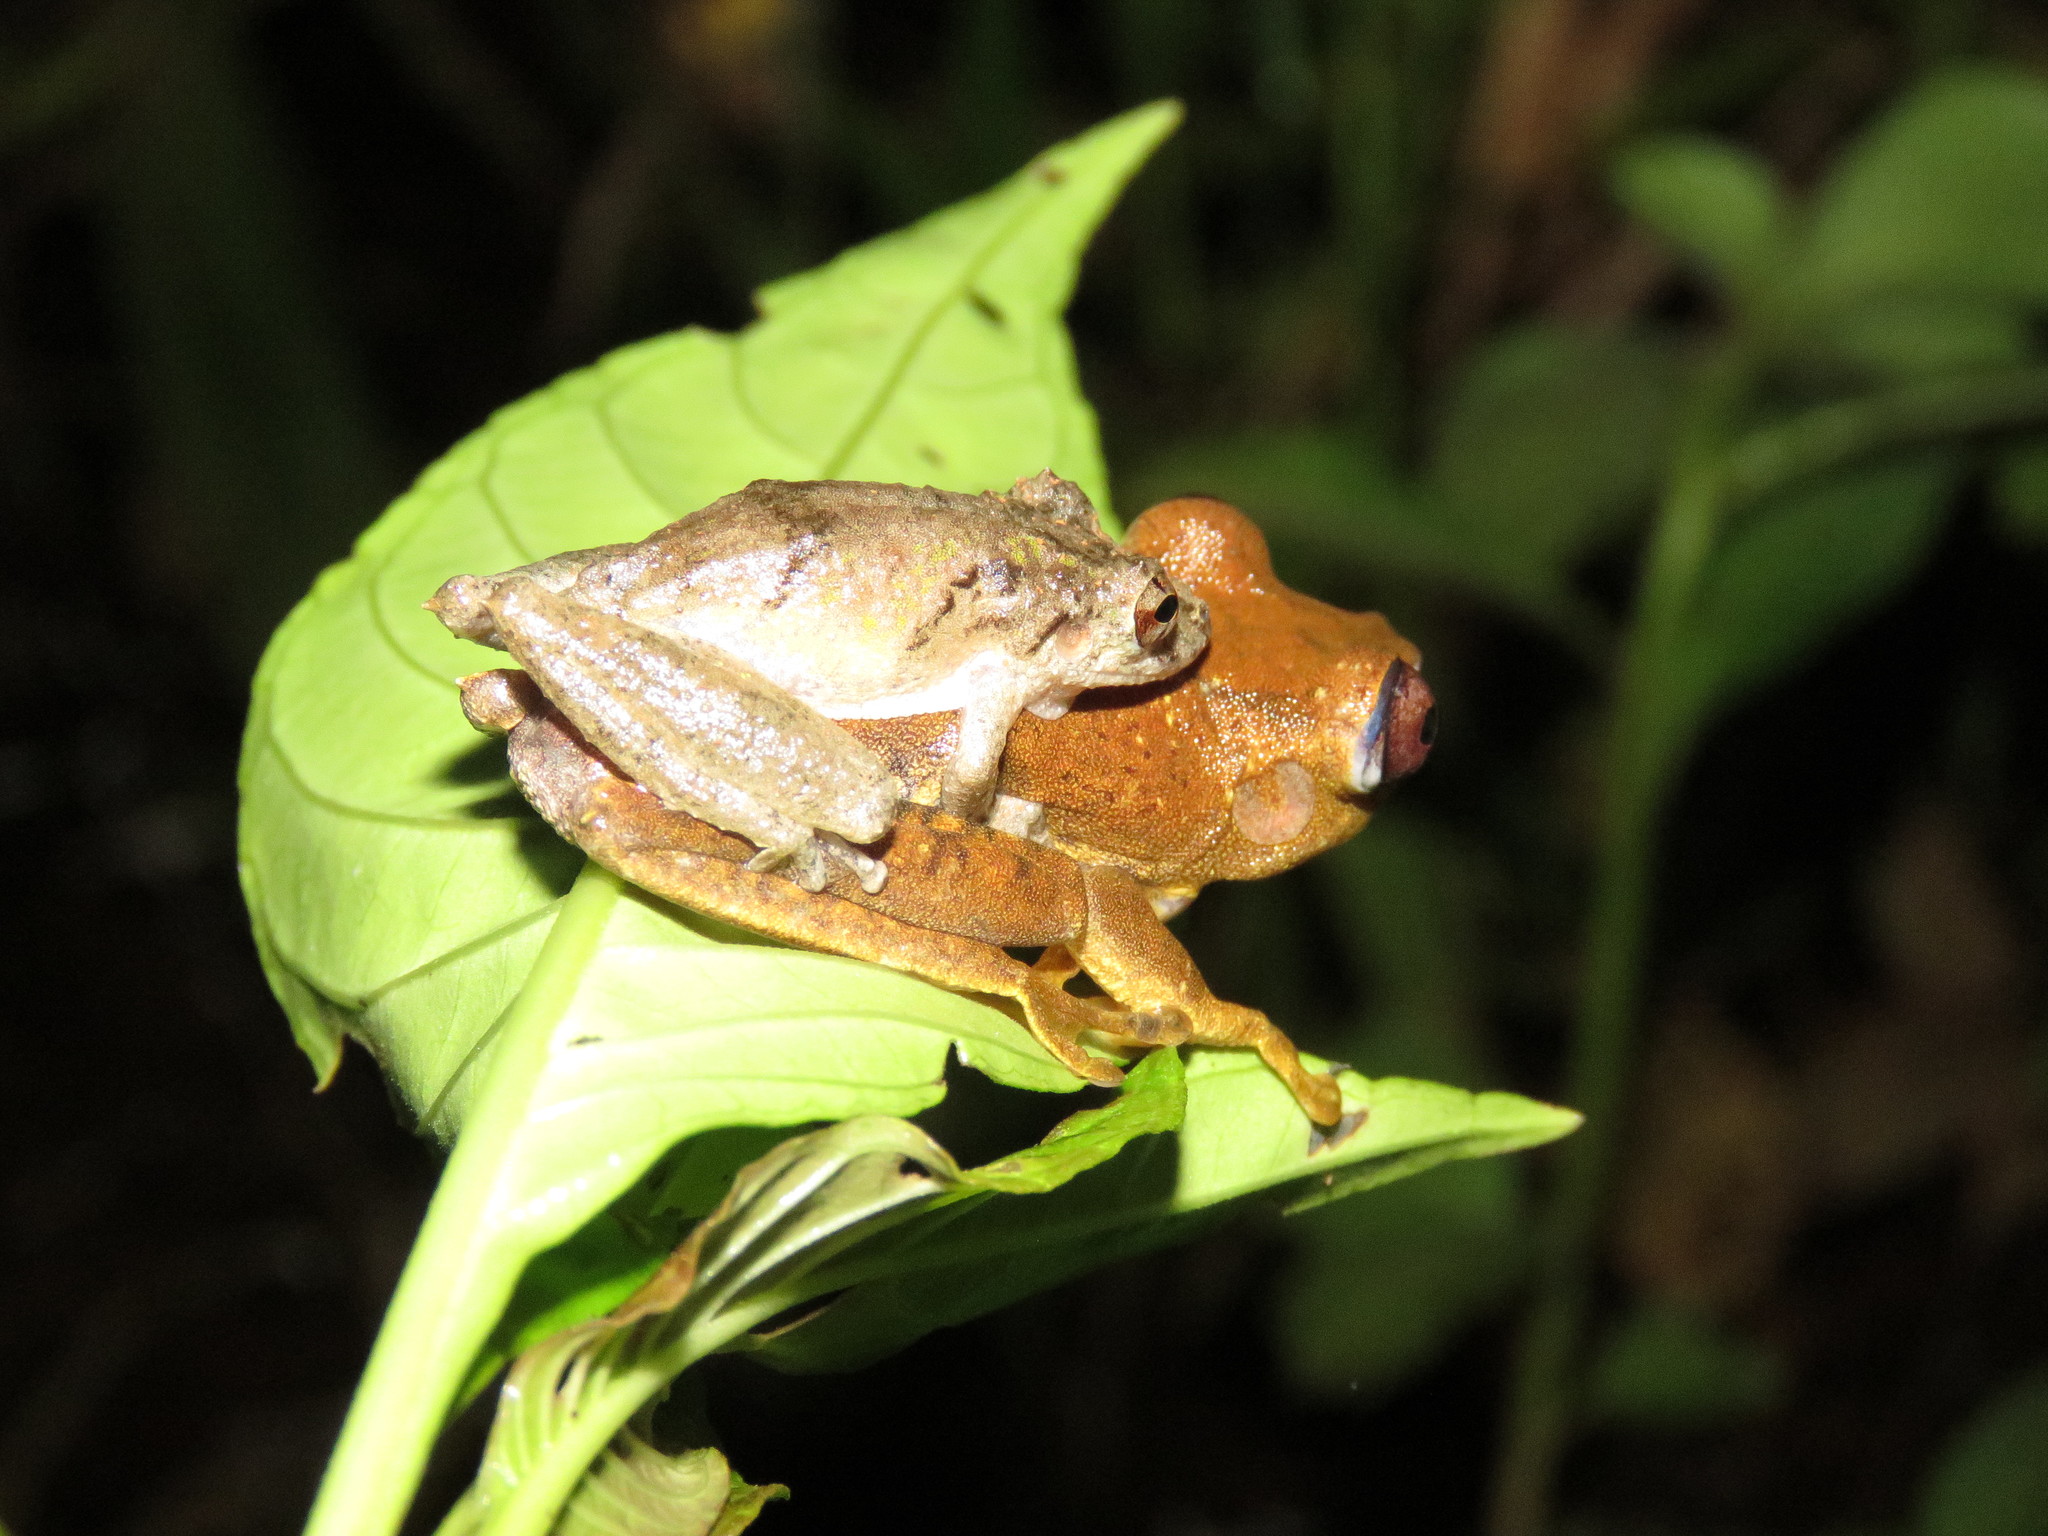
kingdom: Animalia
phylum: Chordata
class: Amphibia
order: Anura
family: Hylidae
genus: Scinax
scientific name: Scinax nebulosus
